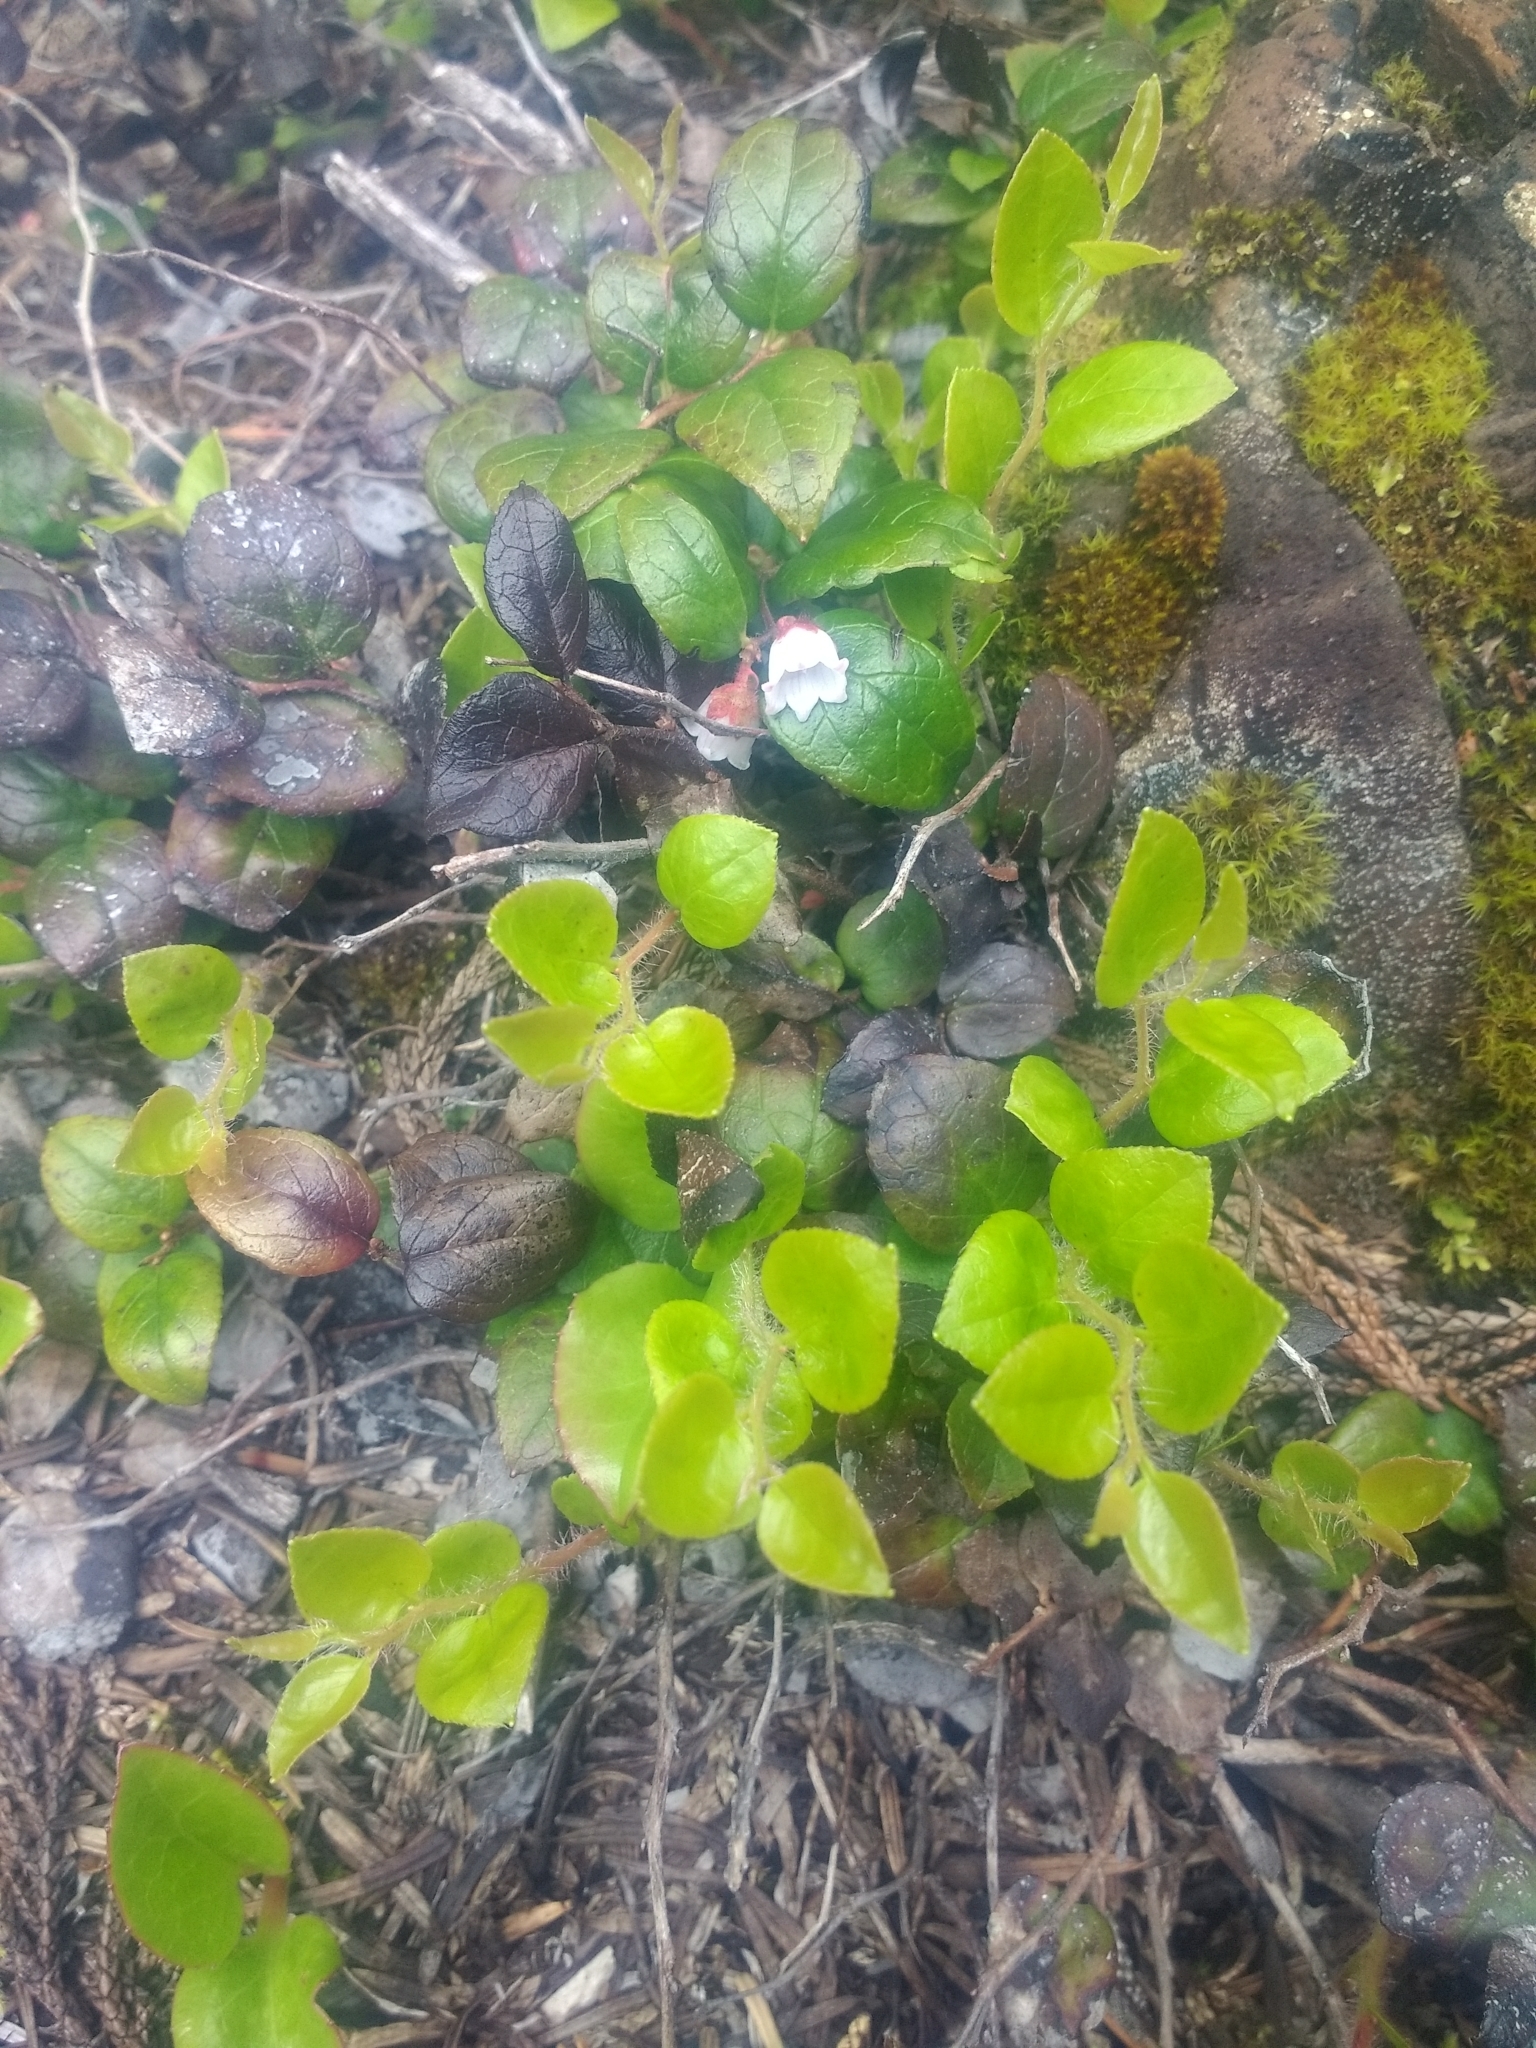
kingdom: Plantae
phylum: Tracheophyta
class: Magnoliopsida
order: Ericales
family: Ericaceae
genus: Gaultheria
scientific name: Gaultheria ovatifolia
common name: Oregon wintergreen
